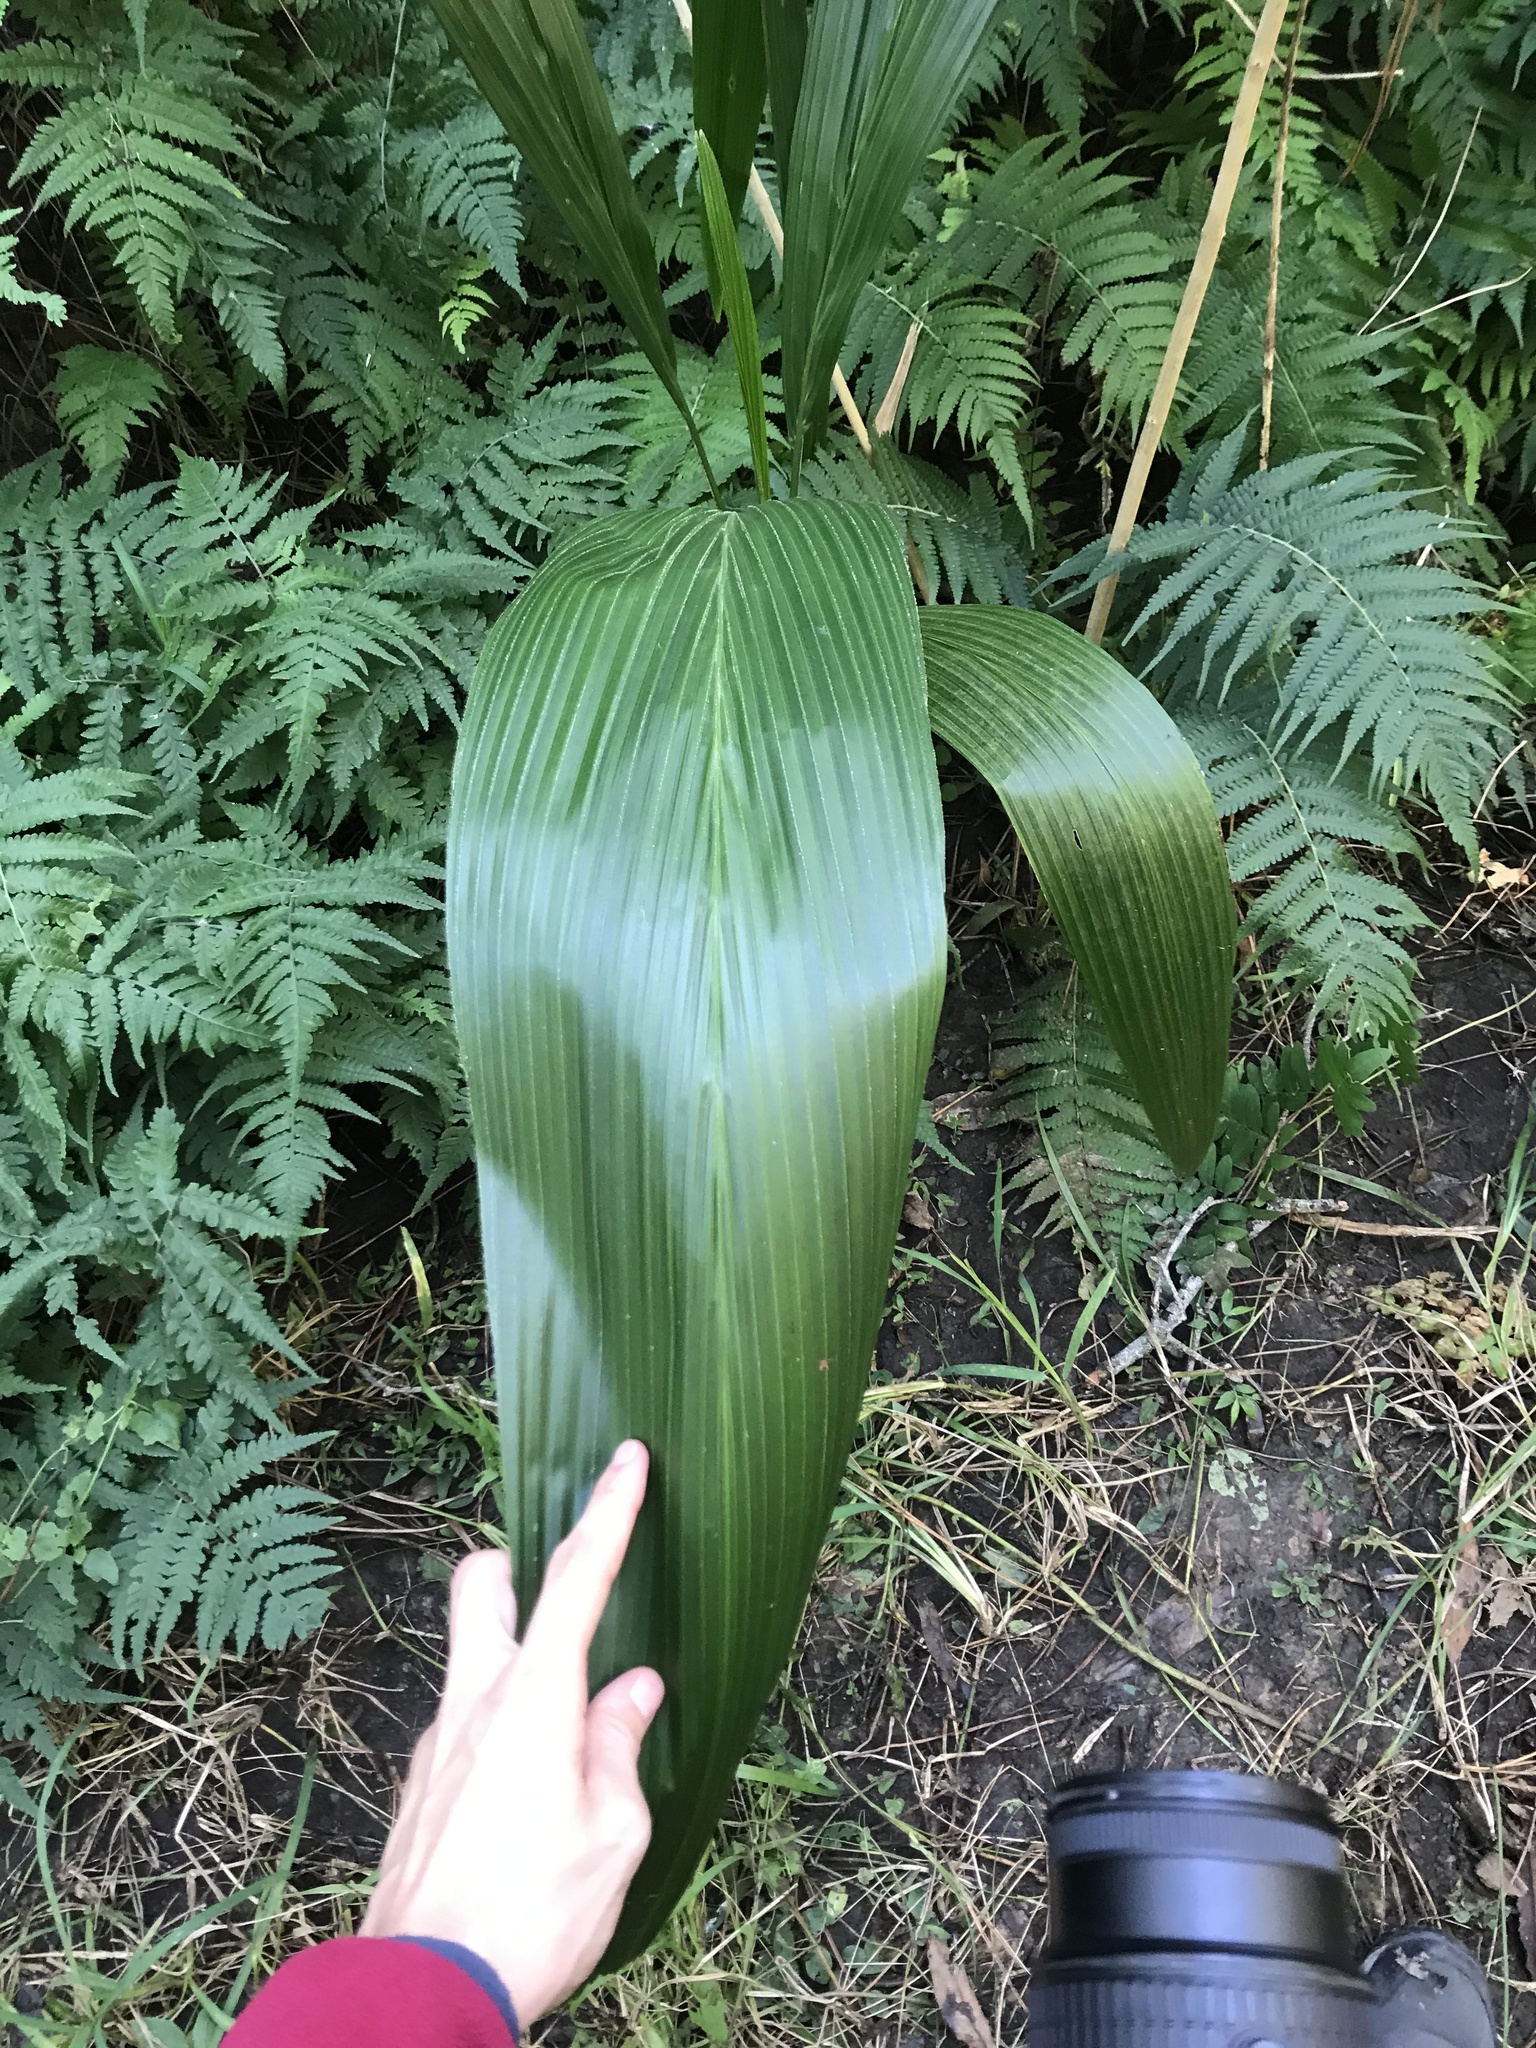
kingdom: Plantae
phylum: Tracheophyta
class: Liliopsida
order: Arecales
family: Arecaceae
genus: Syagrus
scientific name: Syagrus romanzoffiana
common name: Queen palm
